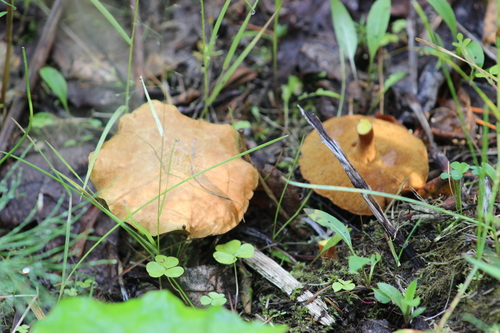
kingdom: Fungi
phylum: Basidiomycota
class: Agaricomycetes
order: Boletales
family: Boletaceae
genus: Chalciporus
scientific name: Chalciporus piperatus
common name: Peppery bolete
